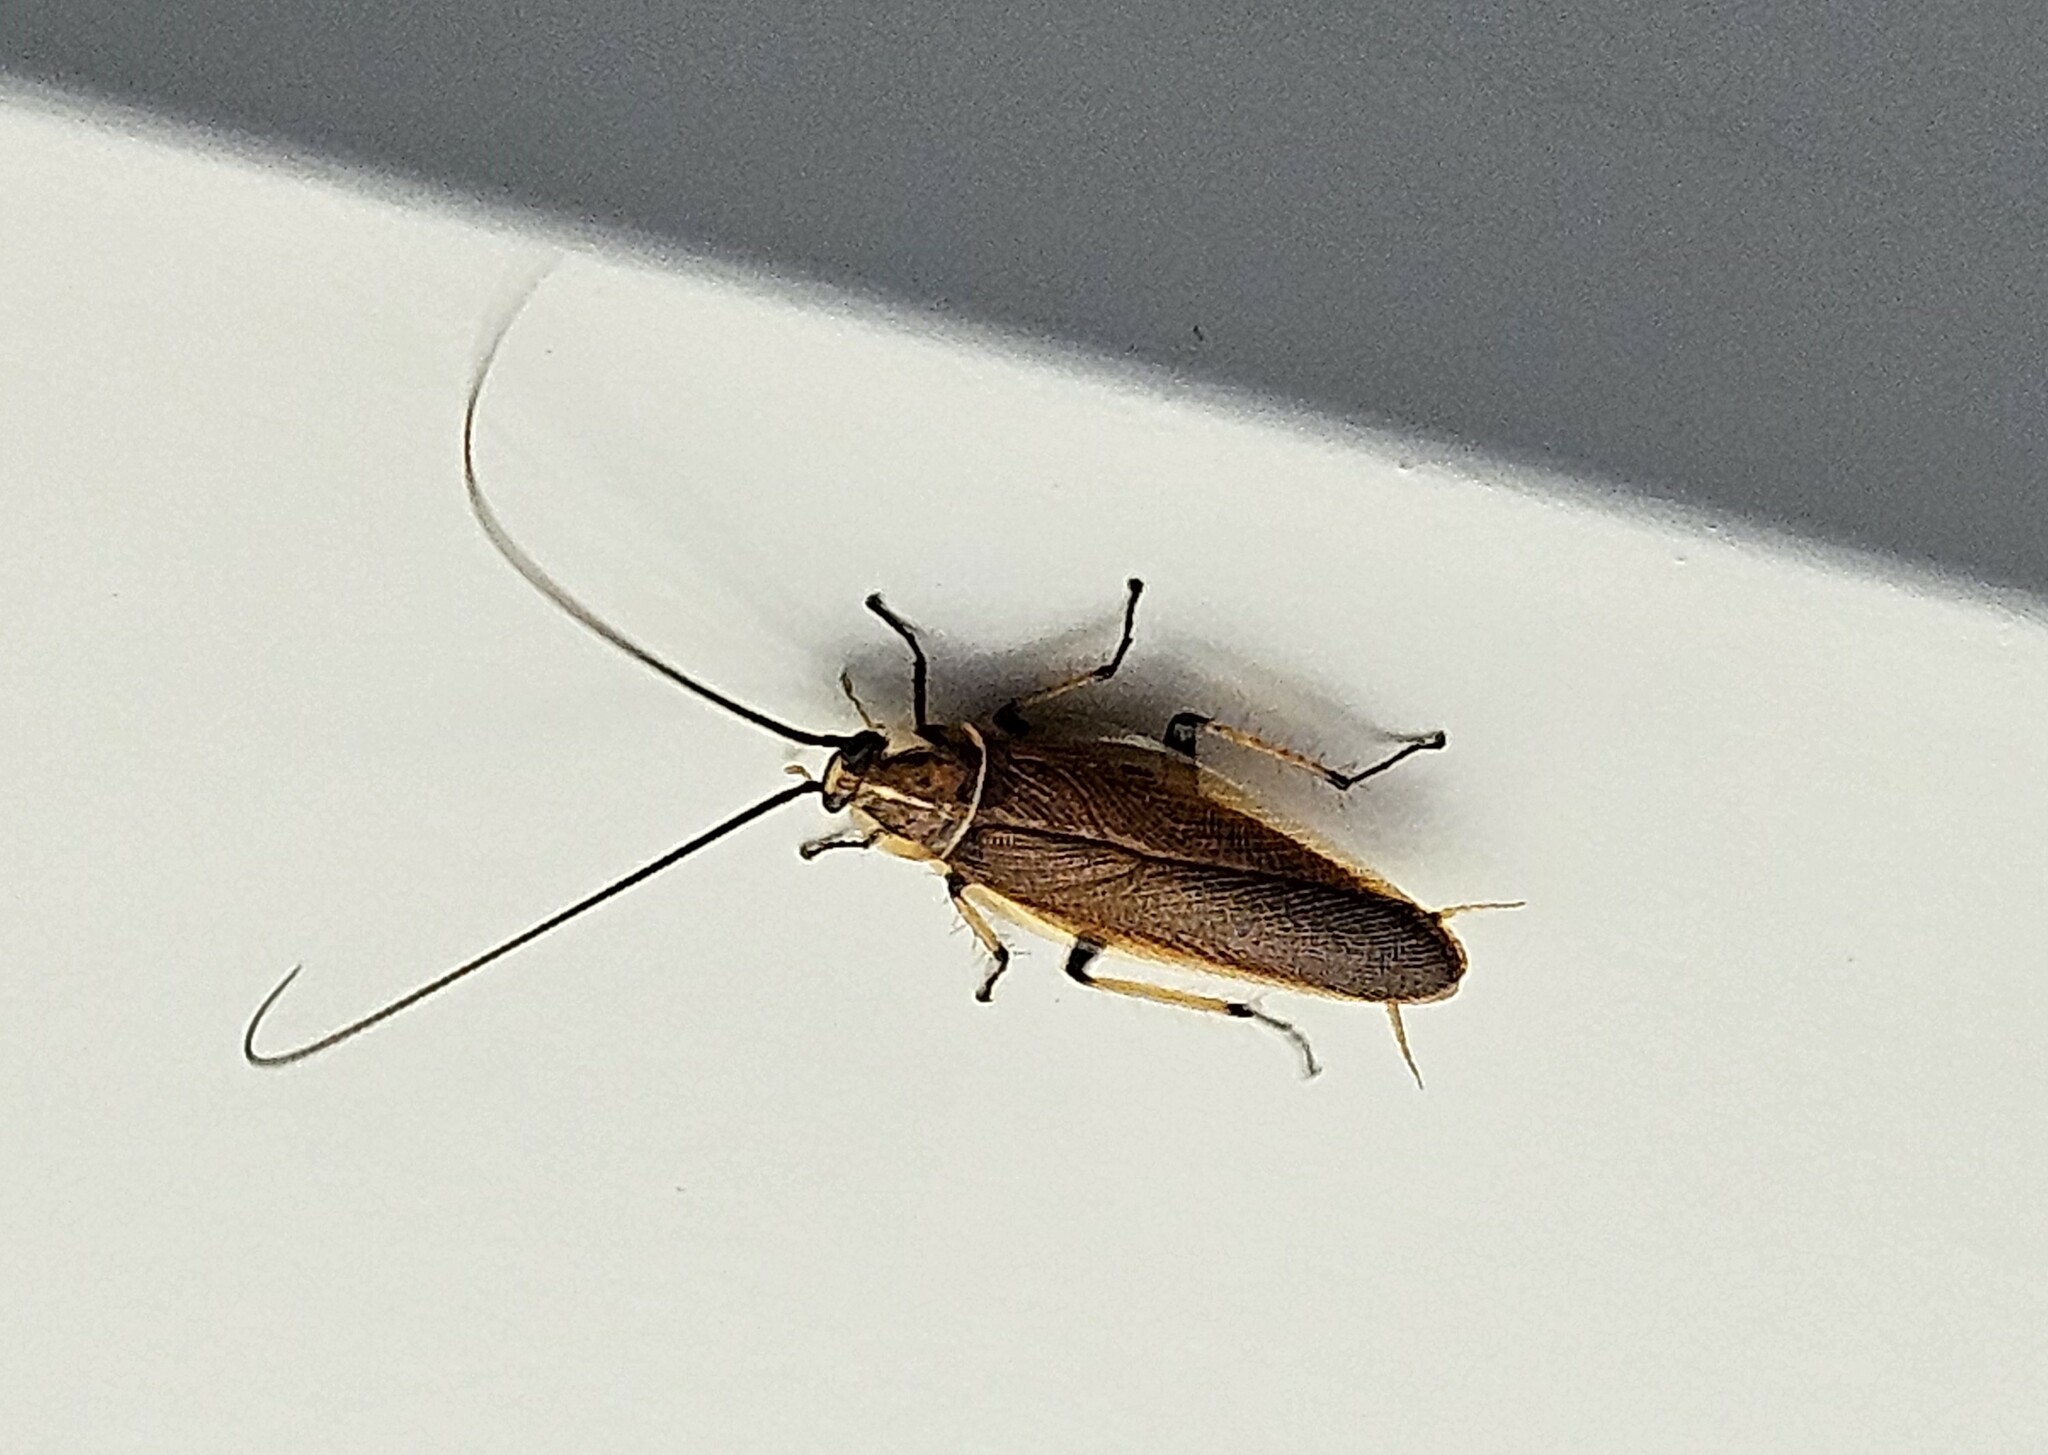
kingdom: Animalia
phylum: Arthropoda
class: Insecta
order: Blattodea
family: Ectobiidae
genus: Balta
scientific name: Balta bicolor
